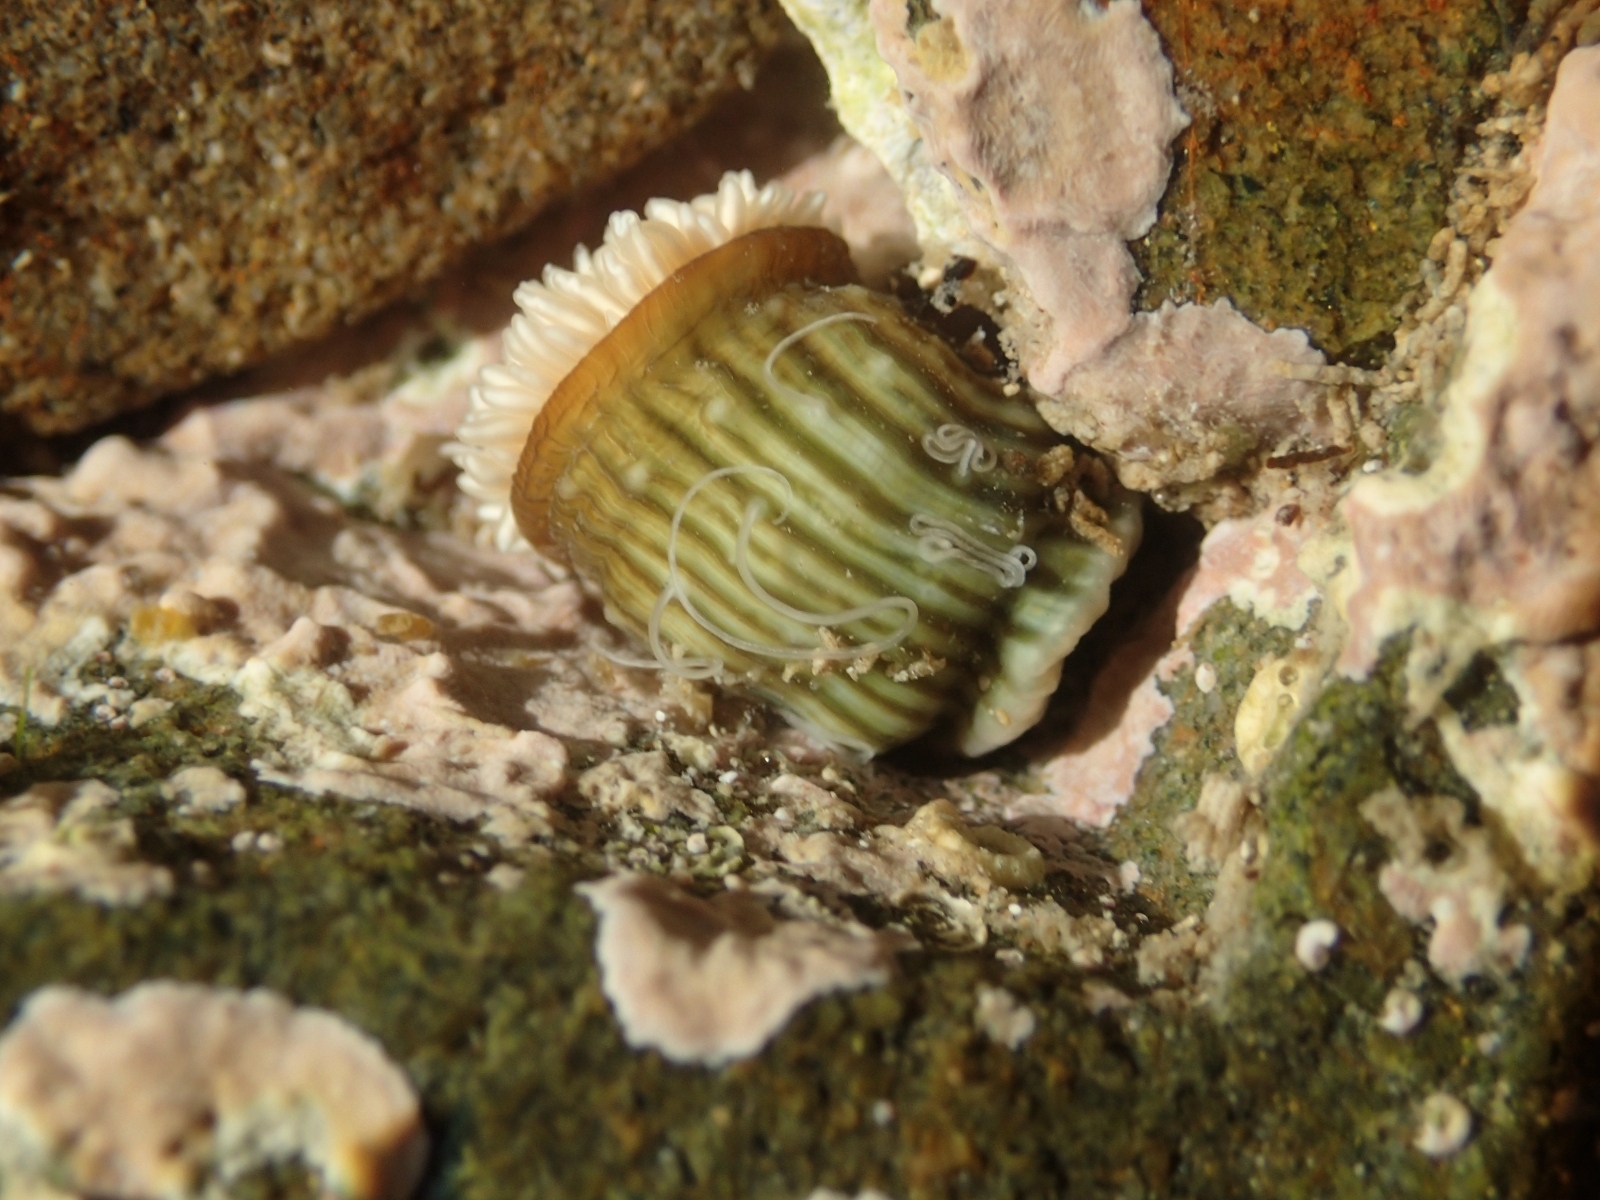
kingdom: Animalia
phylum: Cnidaria
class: Anthozoa
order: Actiniaria
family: Sagartiidae
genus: Anthothoe
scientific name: Anthothoe albocincta
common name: Orange striped anemone
